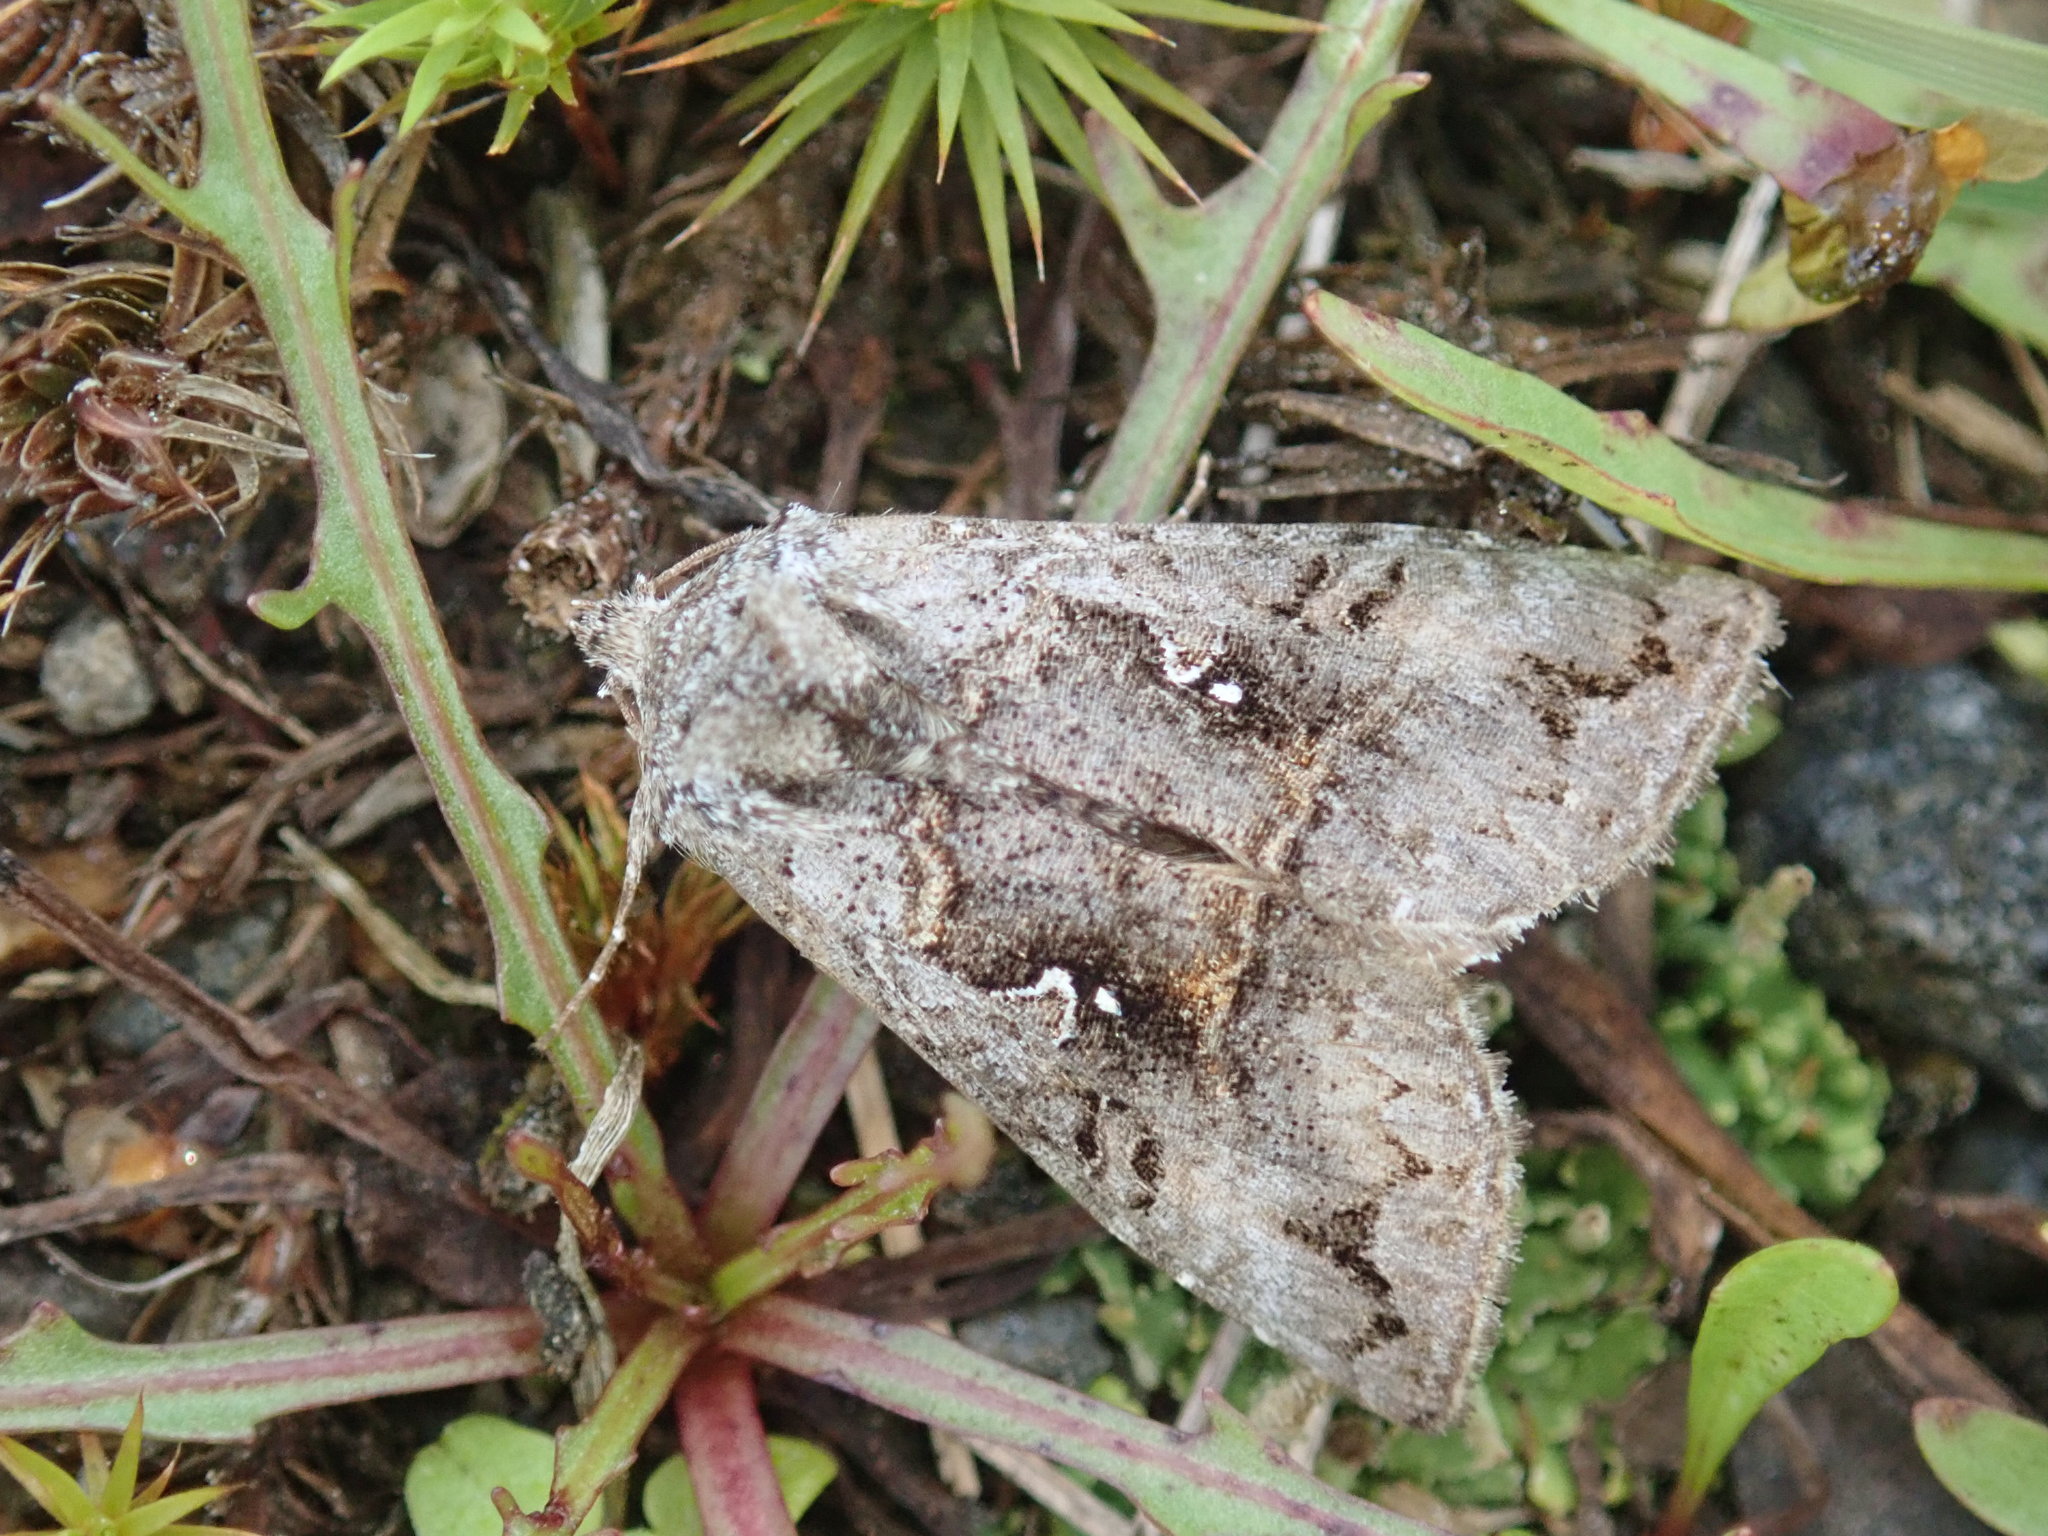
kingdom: Animalia
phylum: Arthropoda
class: Insecta
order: Lepidoptera
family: Noctuidae
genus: Syngrapha
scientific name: Syngrapha interrogationis
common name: Scarce silver y
